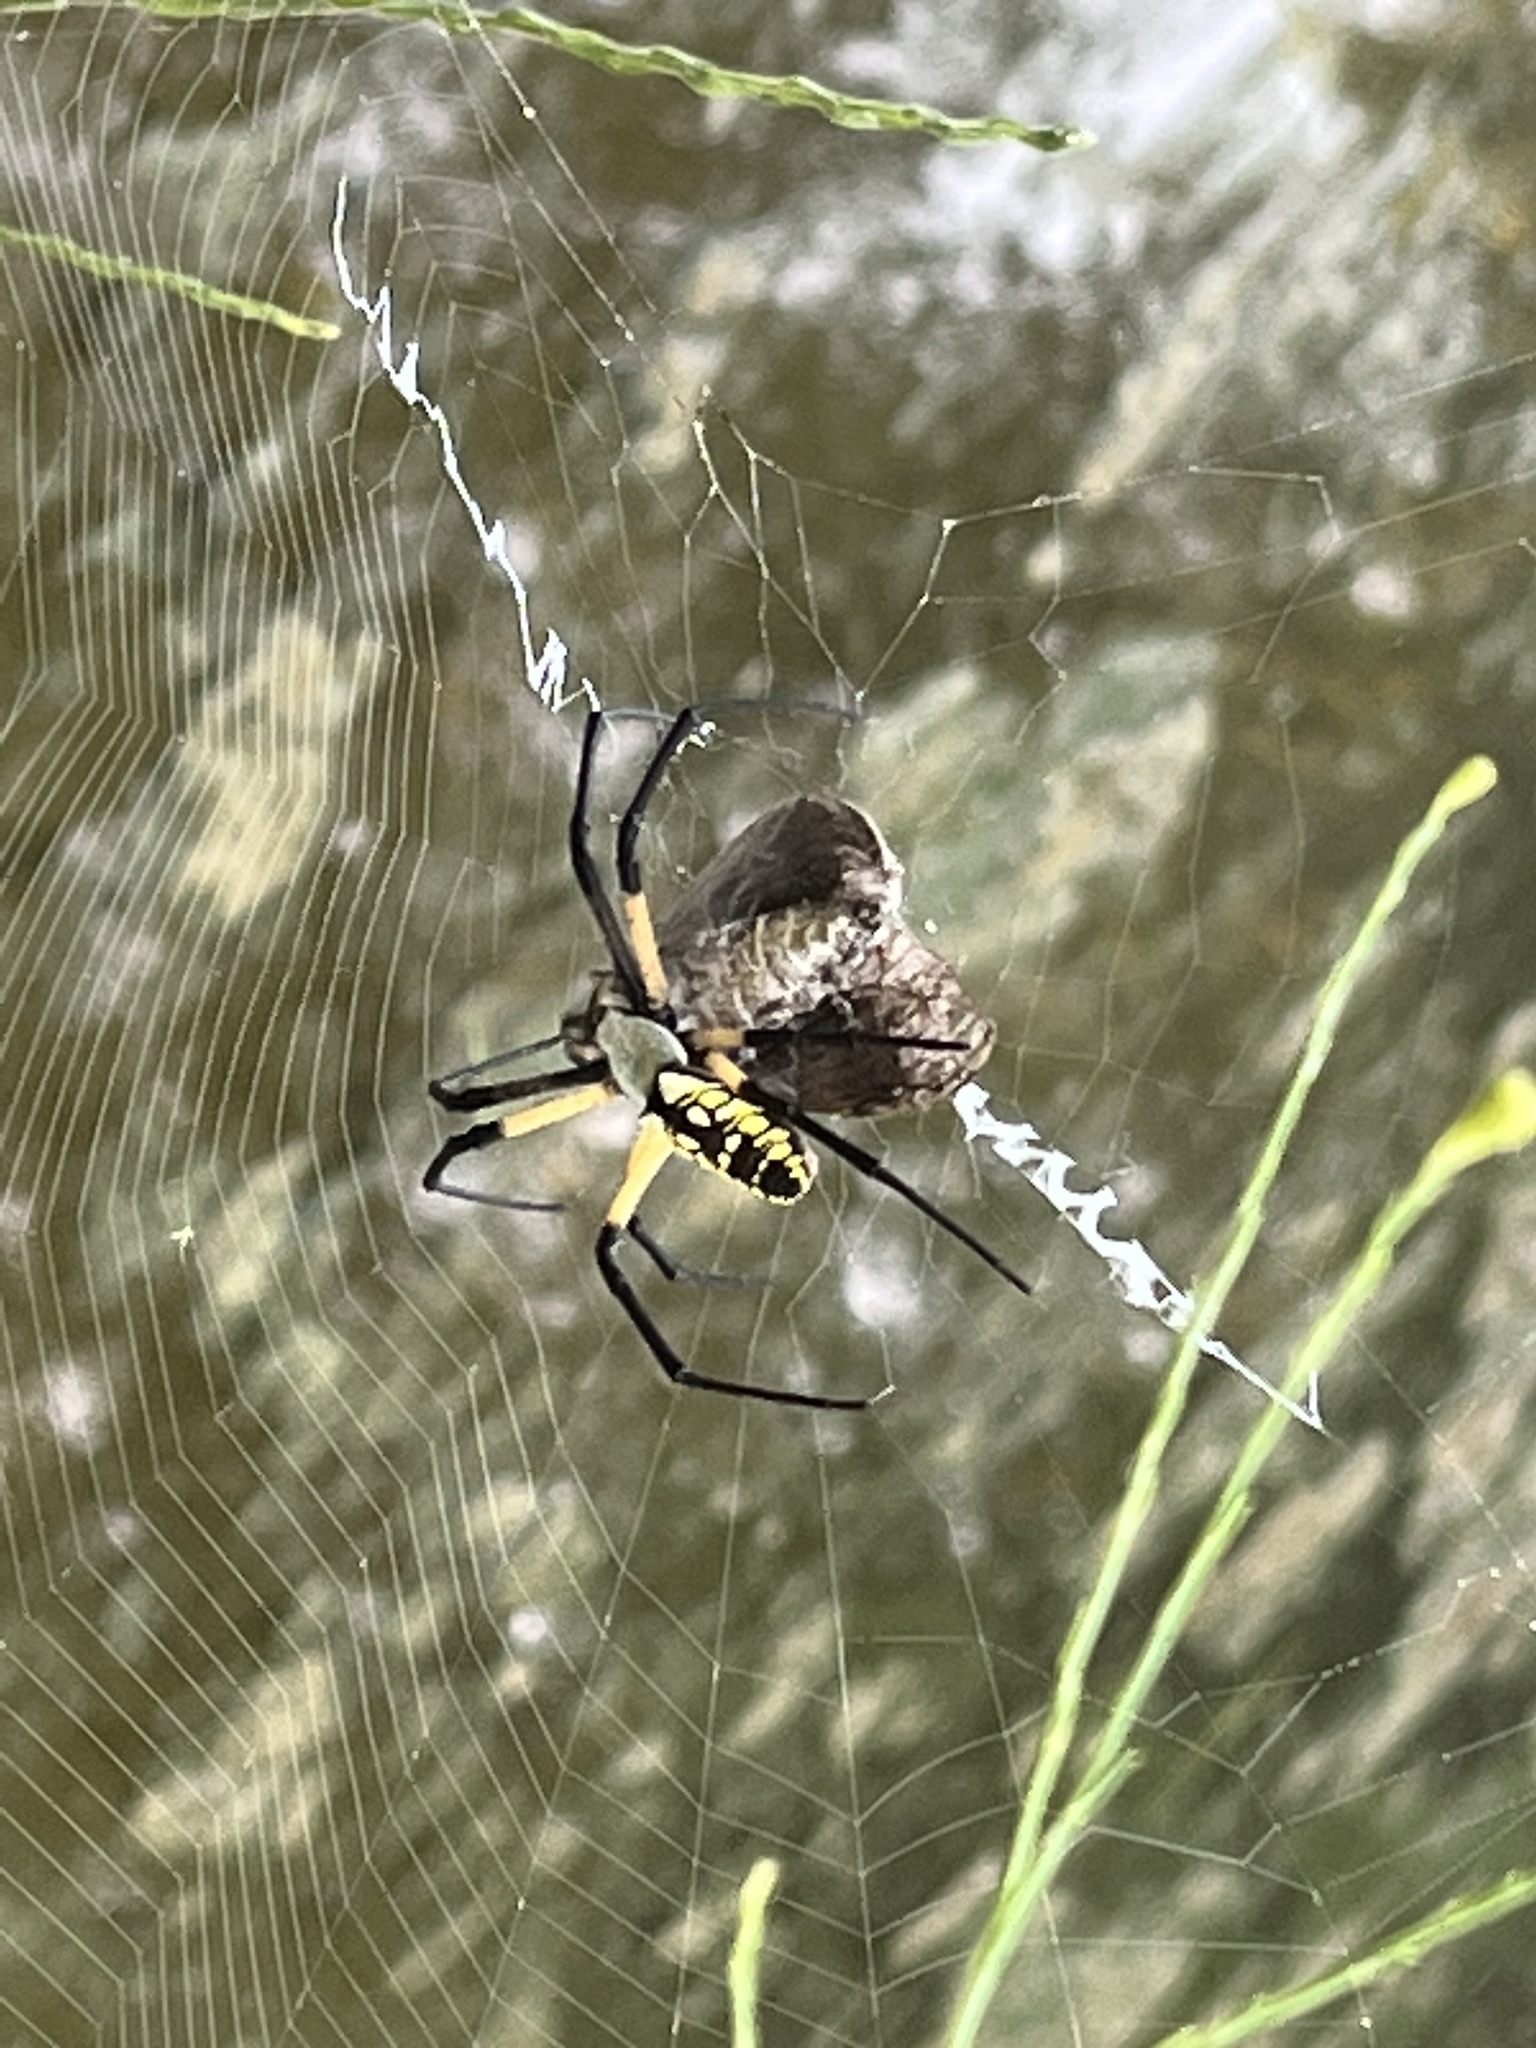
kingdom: Animalia
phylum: Arthropoda
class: Arachnida
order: Araneae
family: Araneidae
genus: Argiope
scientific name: Argiope aurantia
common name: Orb weavers
